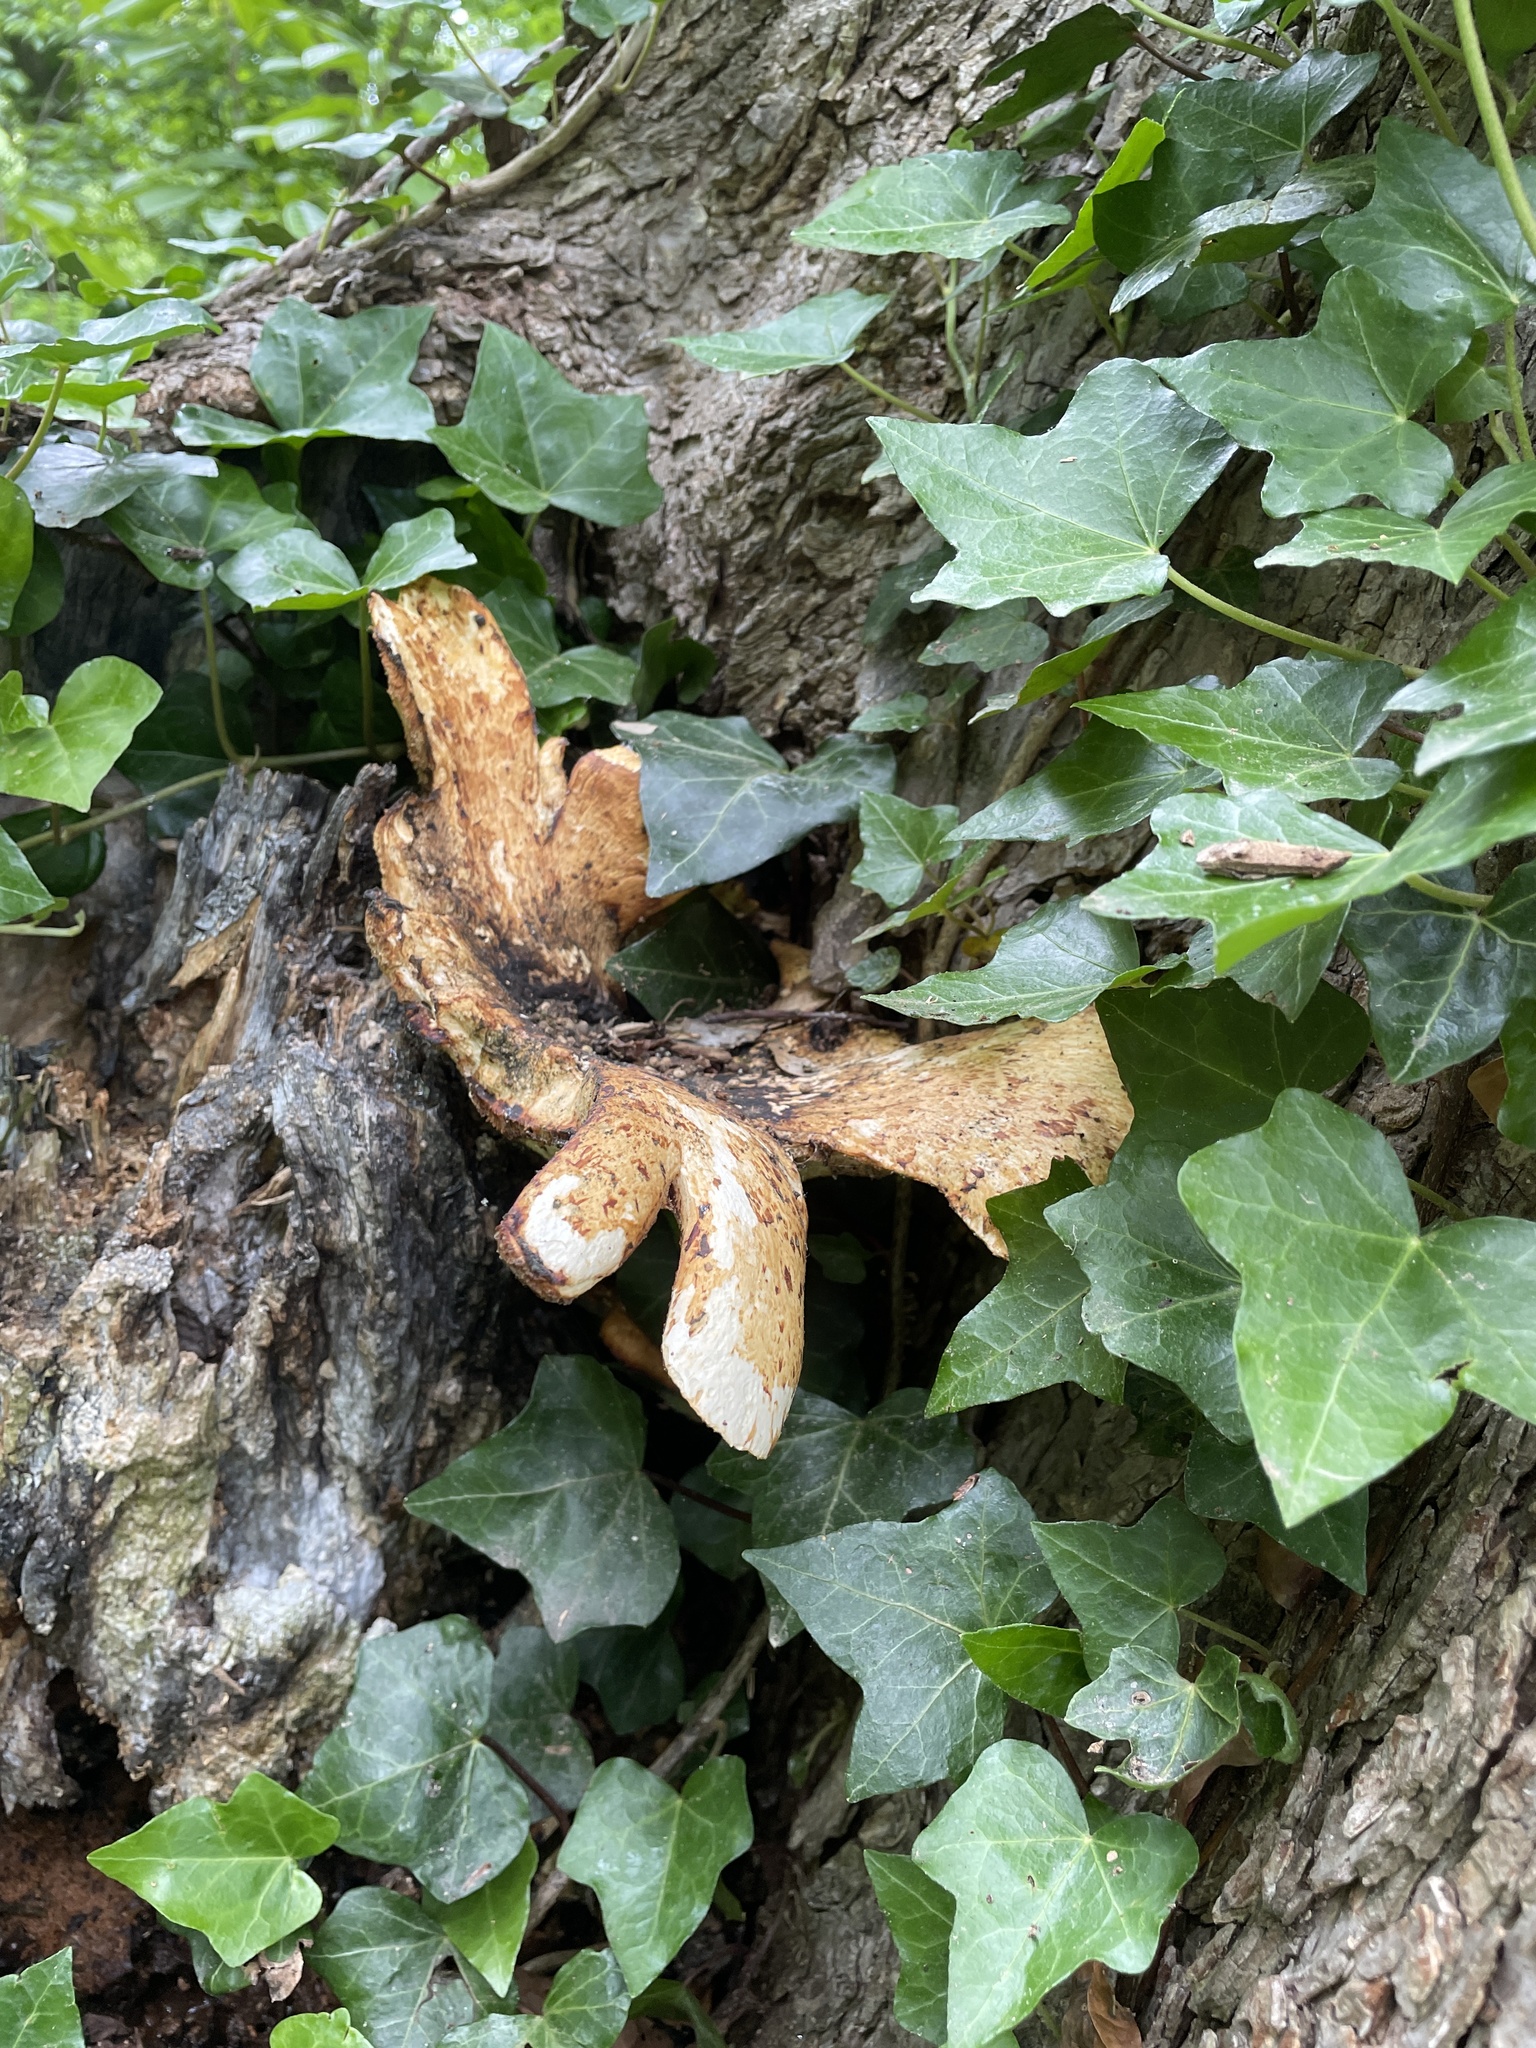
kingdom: Fungi
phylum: Basidiomycota
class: Agaricomycetes
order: Polyporales
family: Polyporaceae
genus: Cerioporus
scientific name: Cerioporus squamosus
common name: Dryad's saddle
